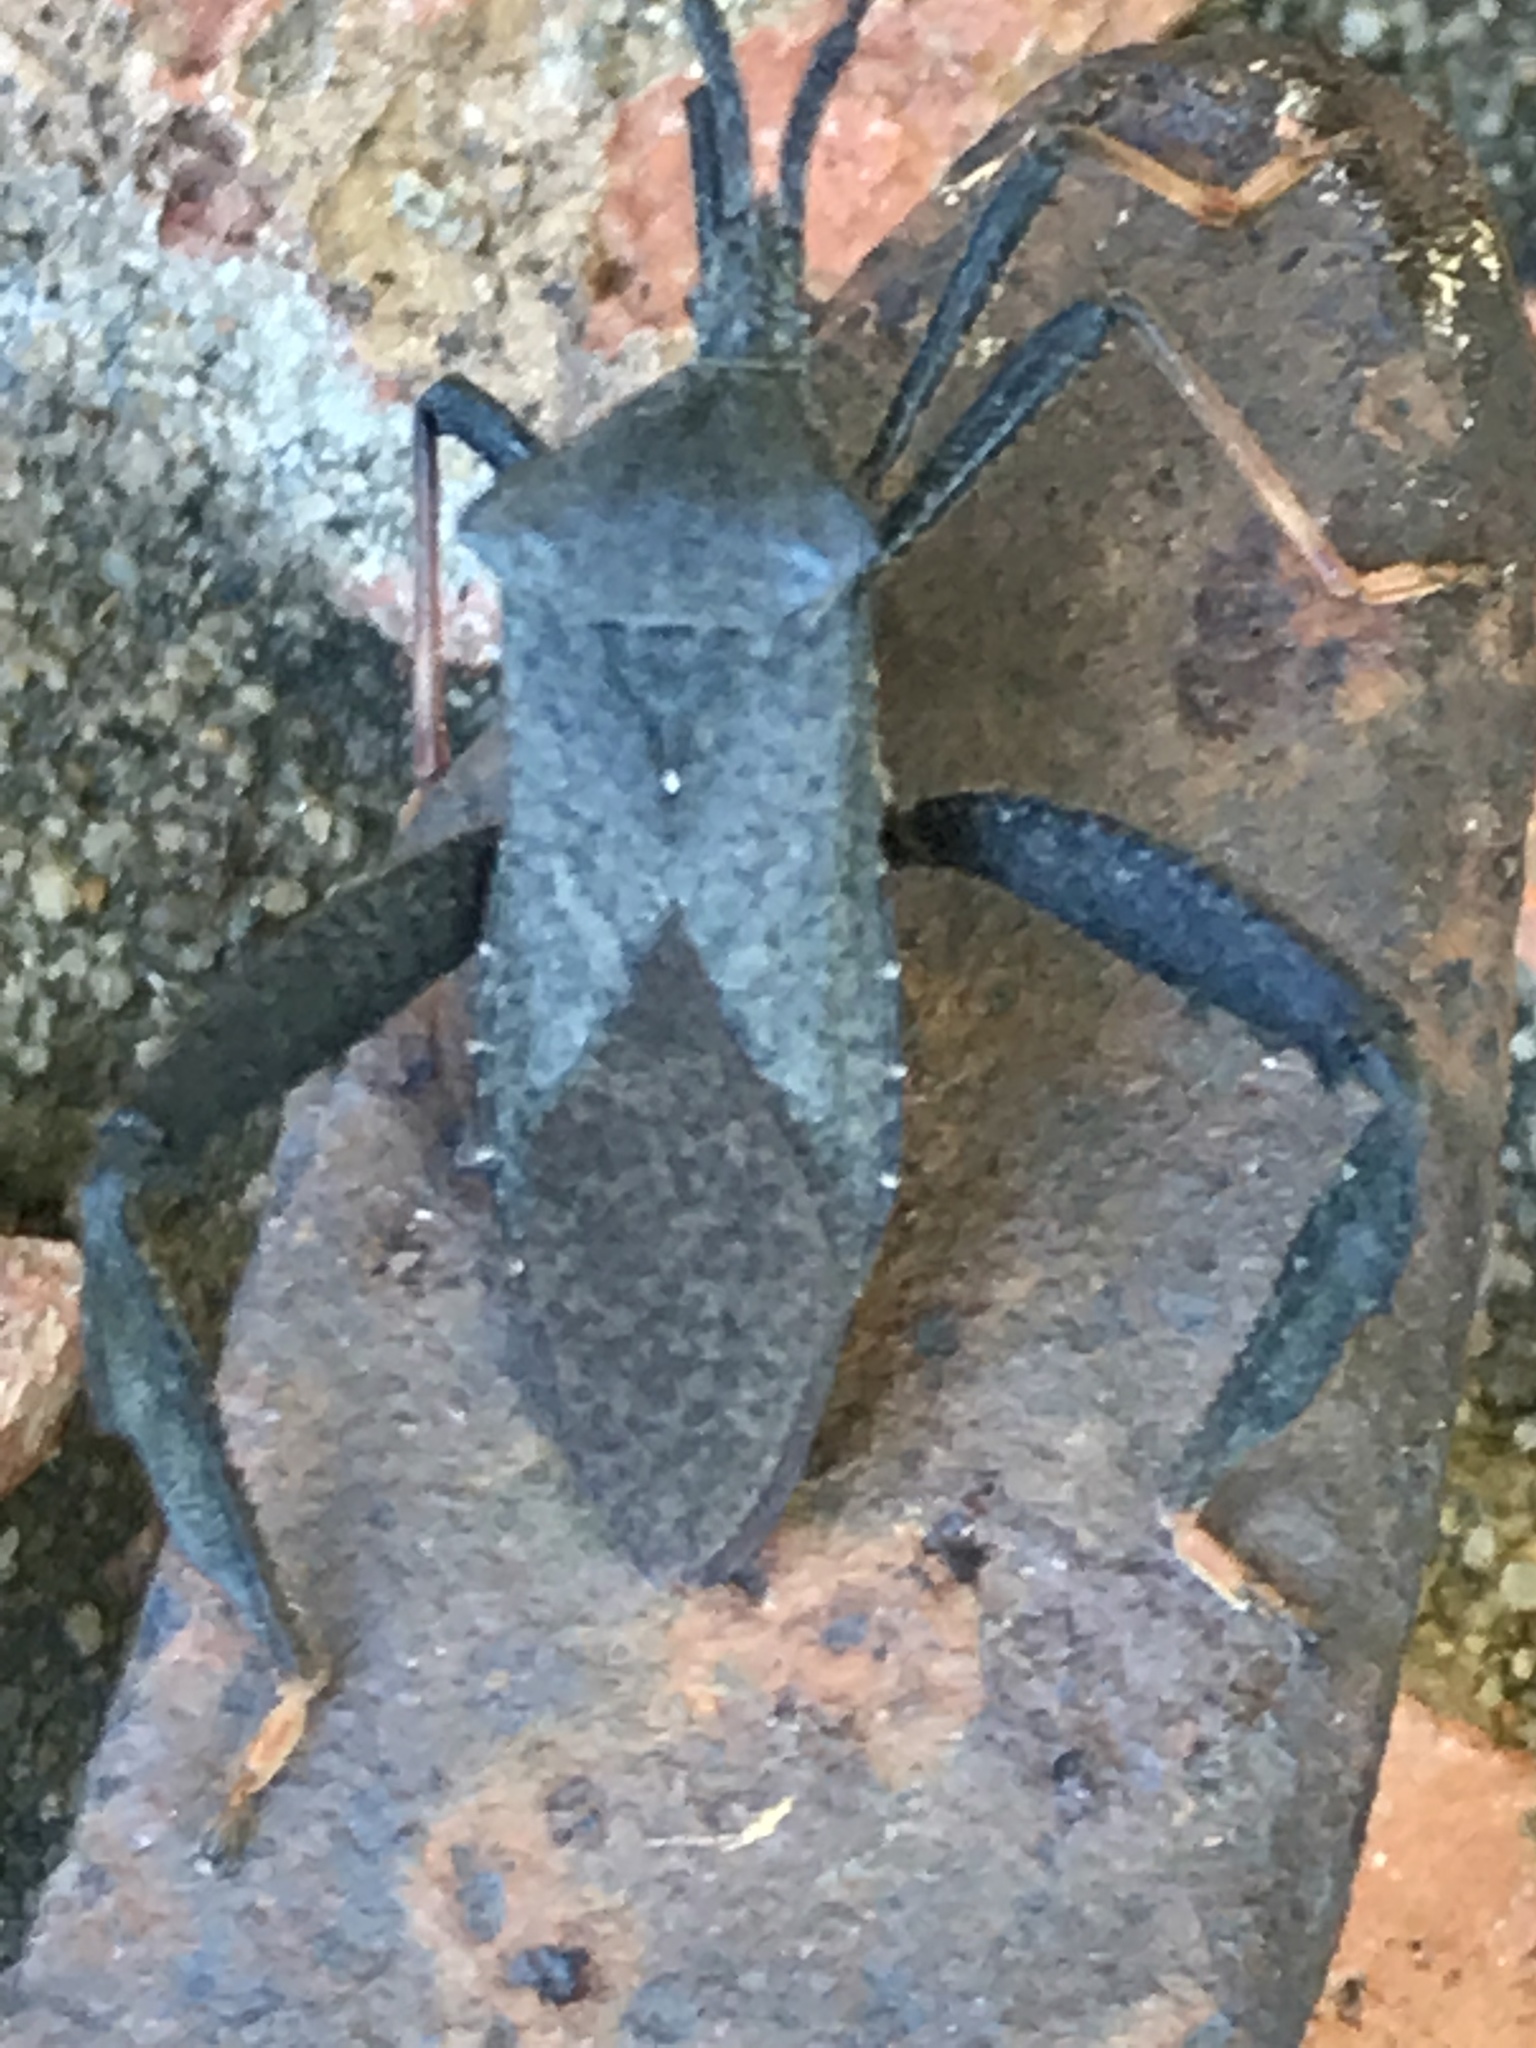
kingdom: Animalia
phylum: Arthropoda
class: Insecta
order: Hemiptera
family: Coreidae
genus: Acanthocephala
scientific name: Acanthocephala terminalis
